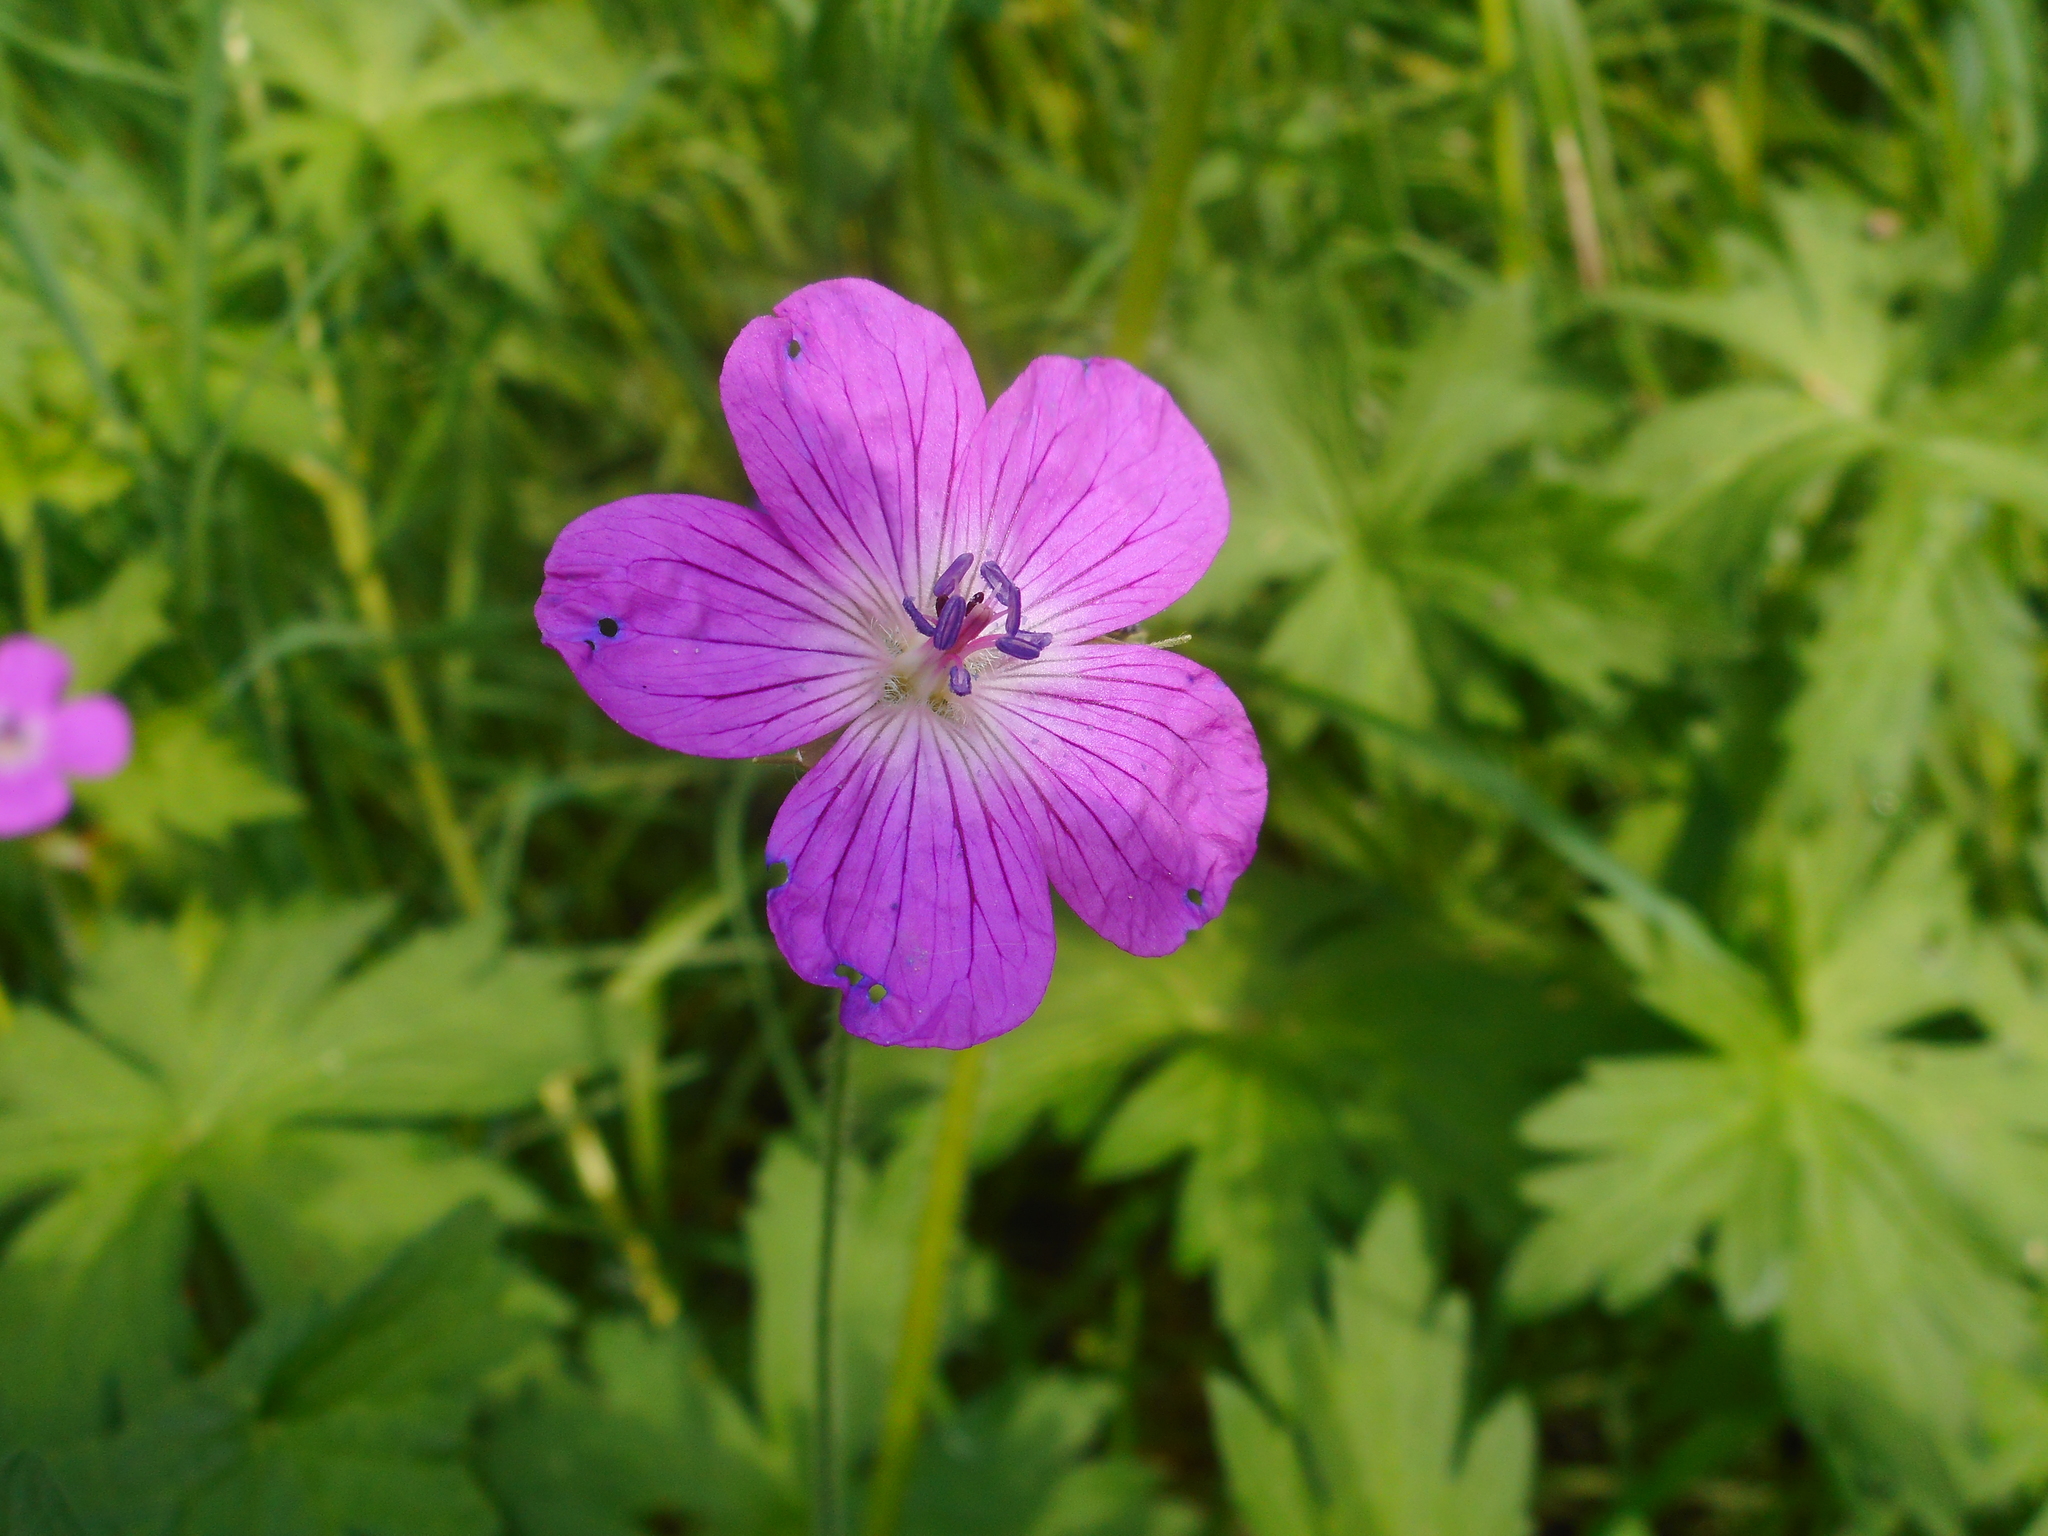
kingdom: Plantae
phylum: Tracheophyta
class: Magnoliopsida
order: Geraniales
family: Geraniaceae
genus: Geranium
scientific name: Geranium palustre
